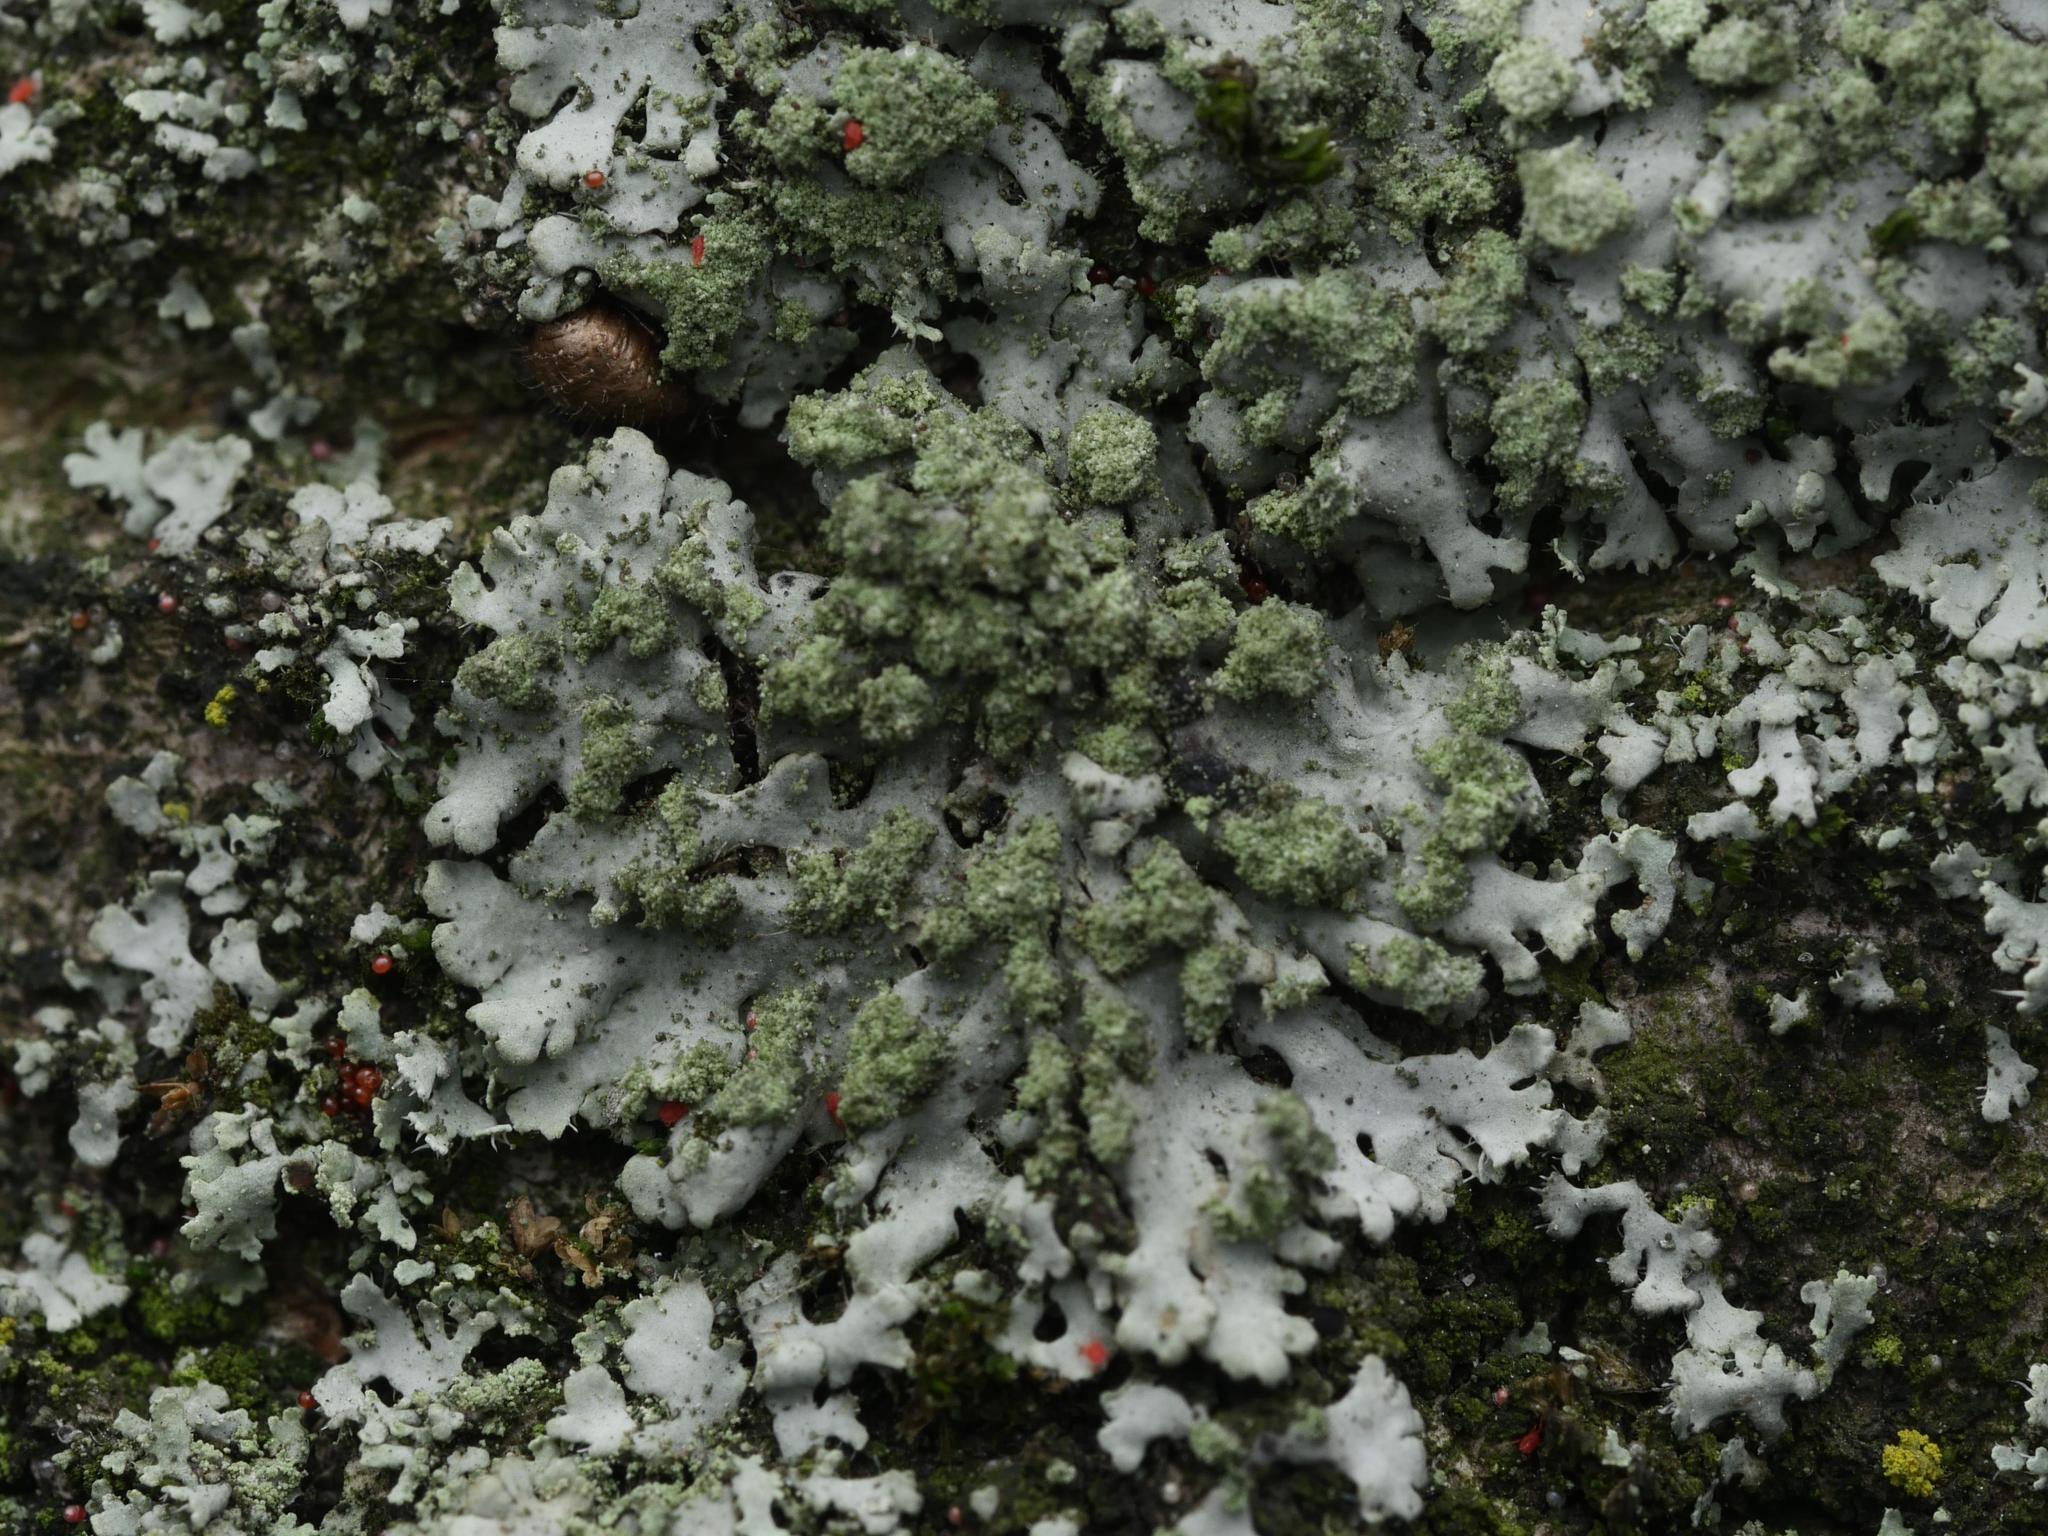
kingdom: Fungi
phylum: Ascomycota
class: Lecanoromycetes
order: Caliciales
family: Physciaceae
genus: Phaeophyscia
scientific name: Phaeophyscia orbicularis
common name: Mealy shadow lichen
